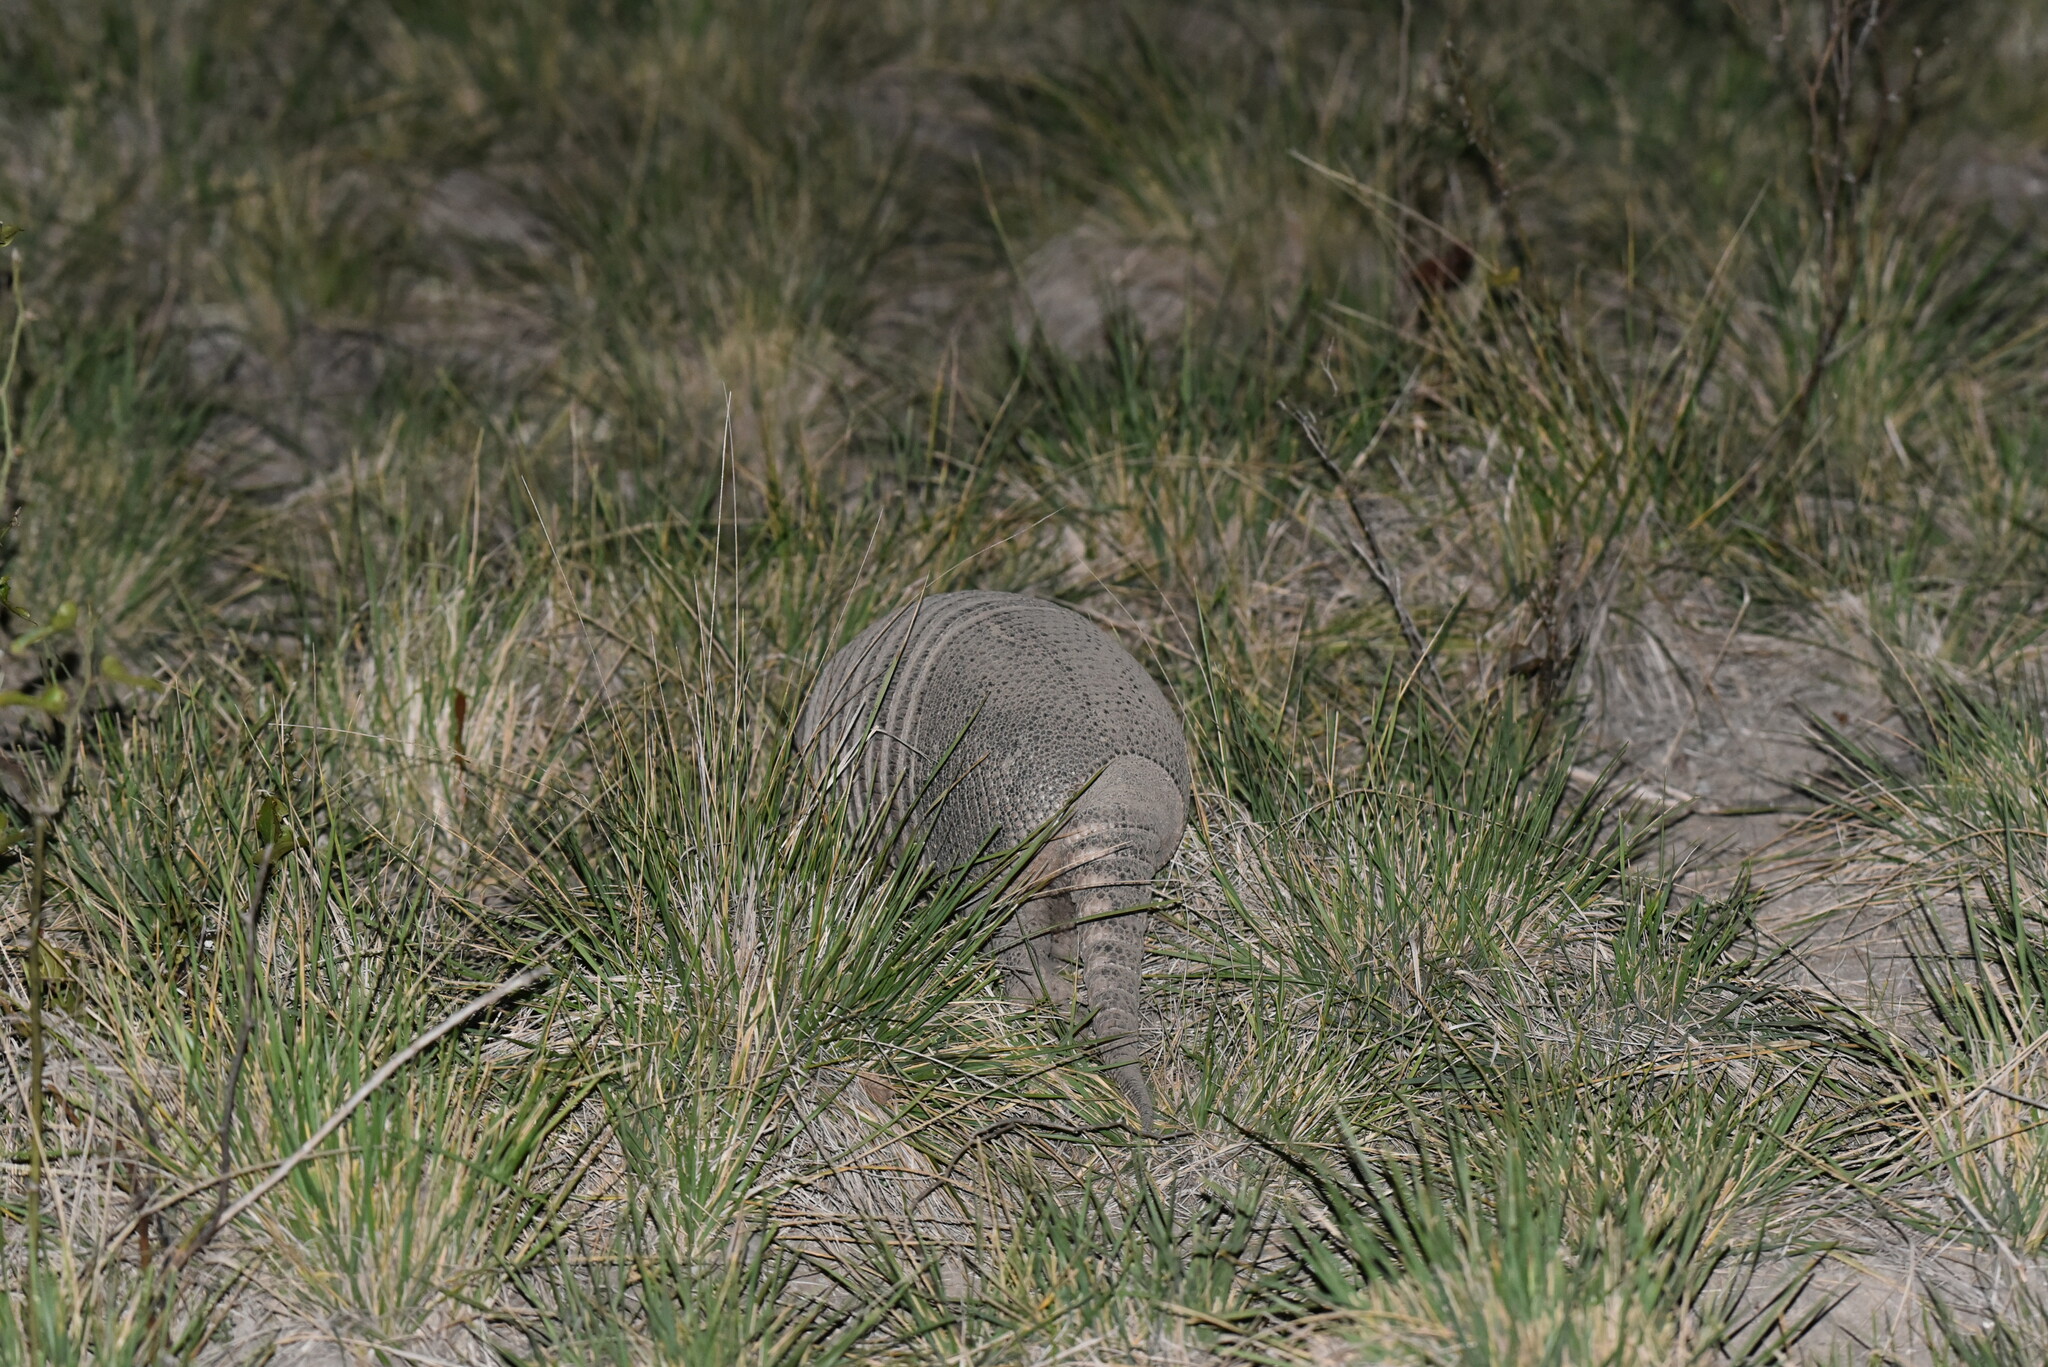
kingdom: Animalia
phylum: Chordata
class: Mammalia
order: Cingulata
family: Dasypodidae
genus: Dasypus
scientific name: Dasypus novemcinctus
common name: Nine-banded armadillo
